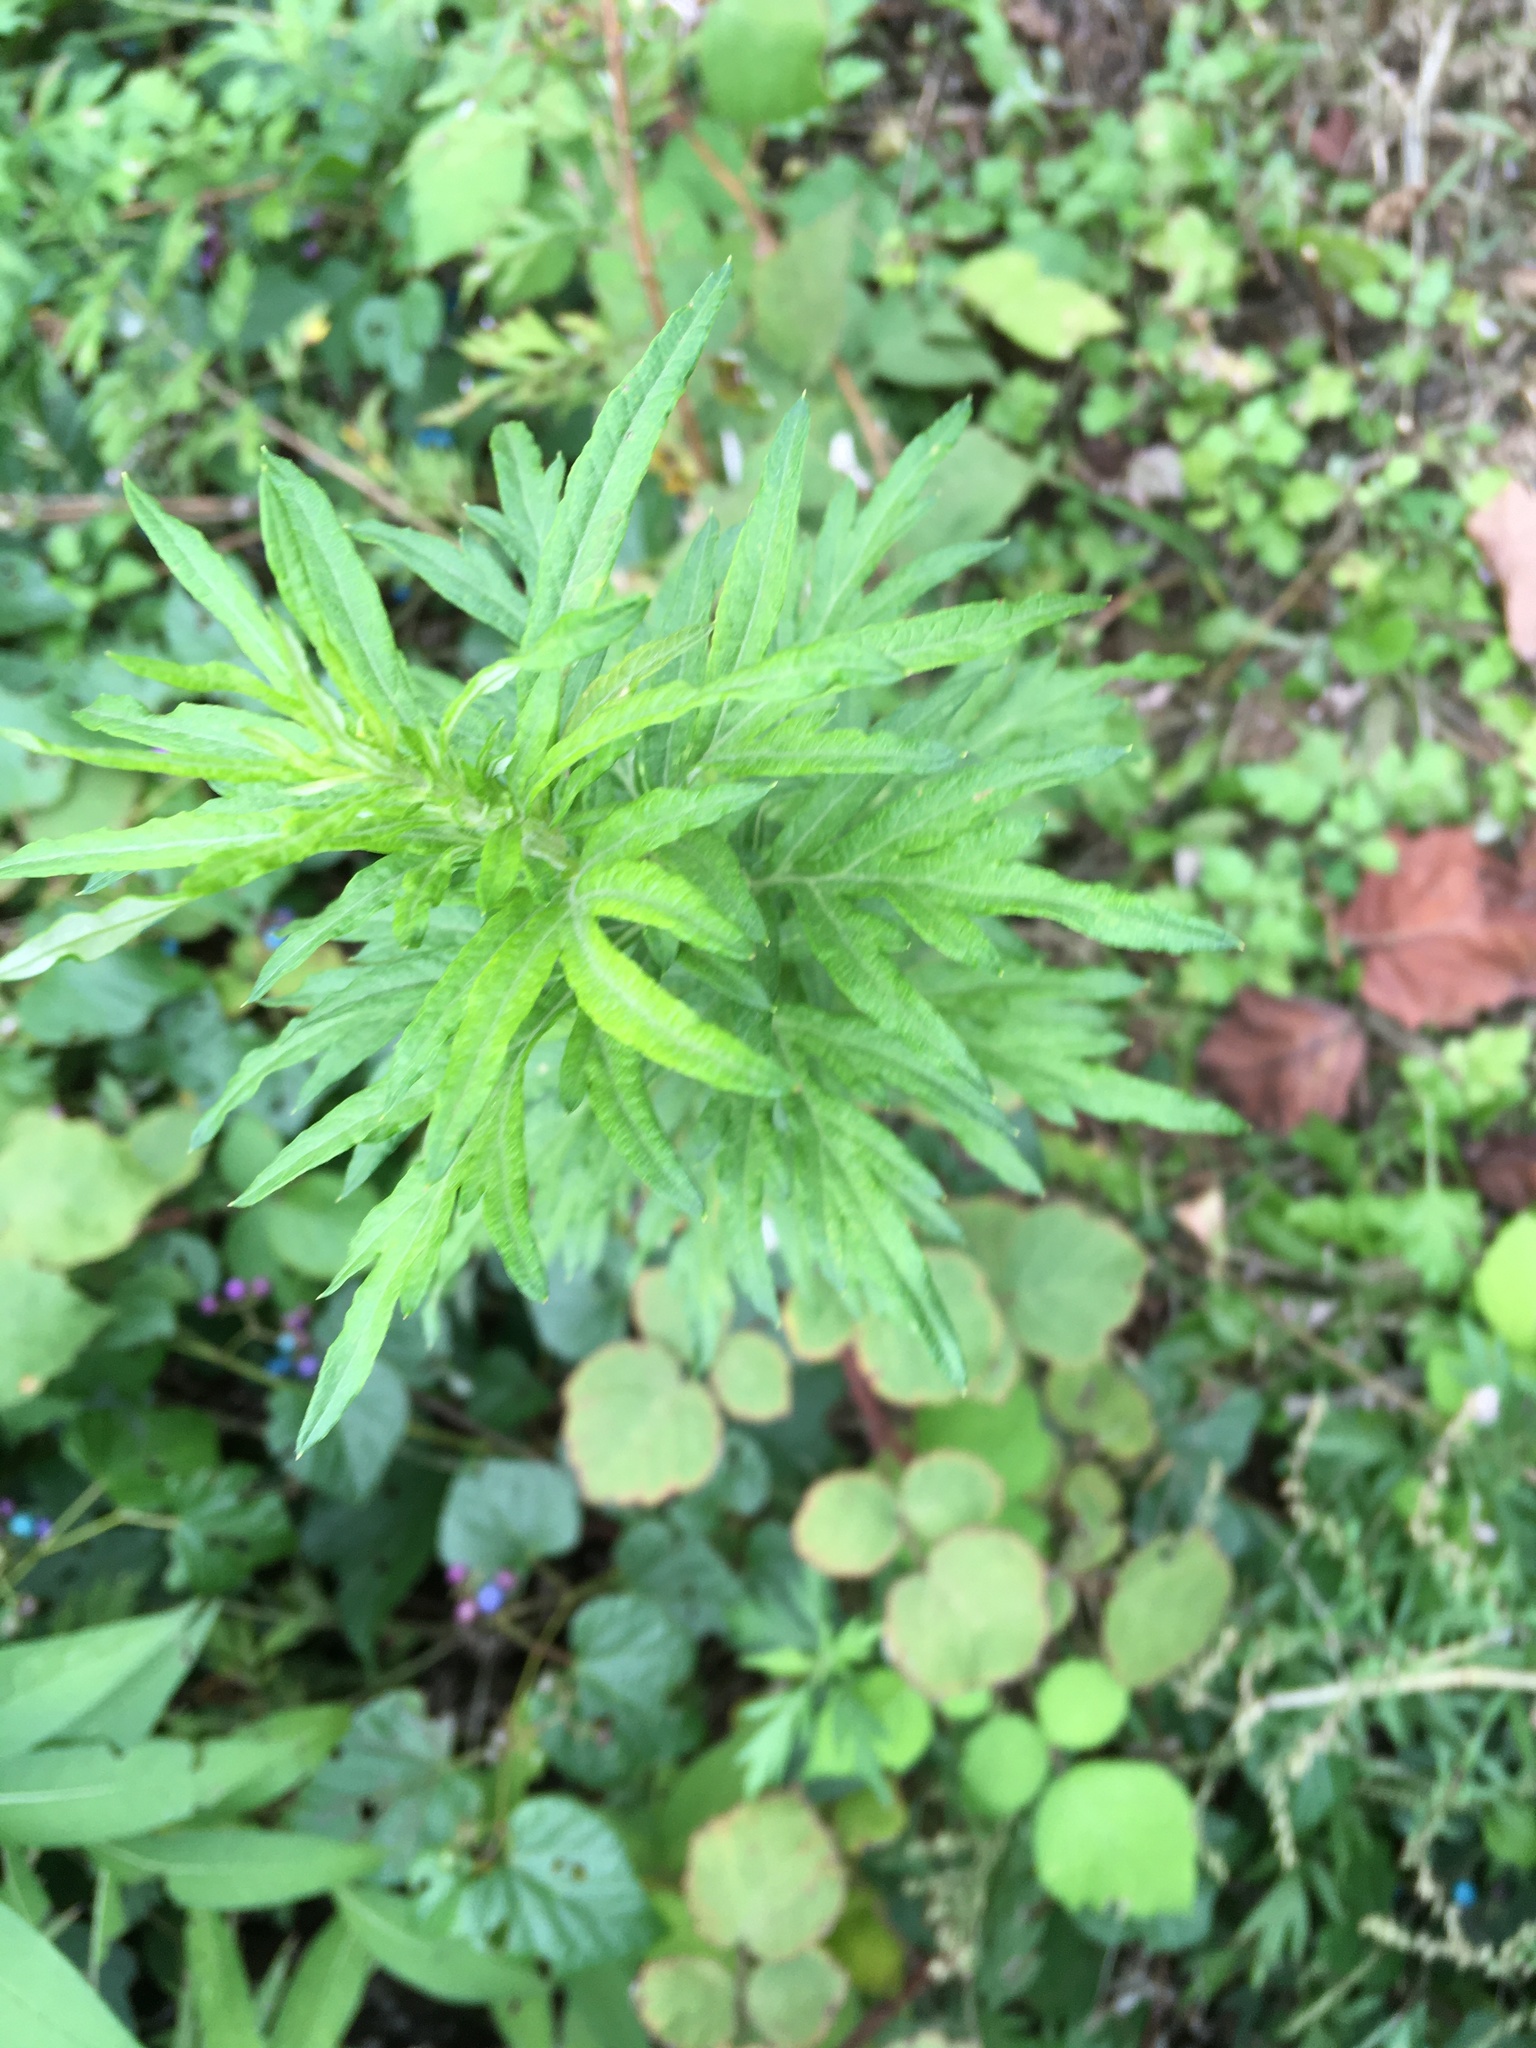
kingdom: Plantae
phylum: Tracheophyta
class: Magnoliopsida
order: Asterales
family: Asteraceae
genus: Artemisia
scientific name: Artemisia vulgaris
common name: Mugwort
